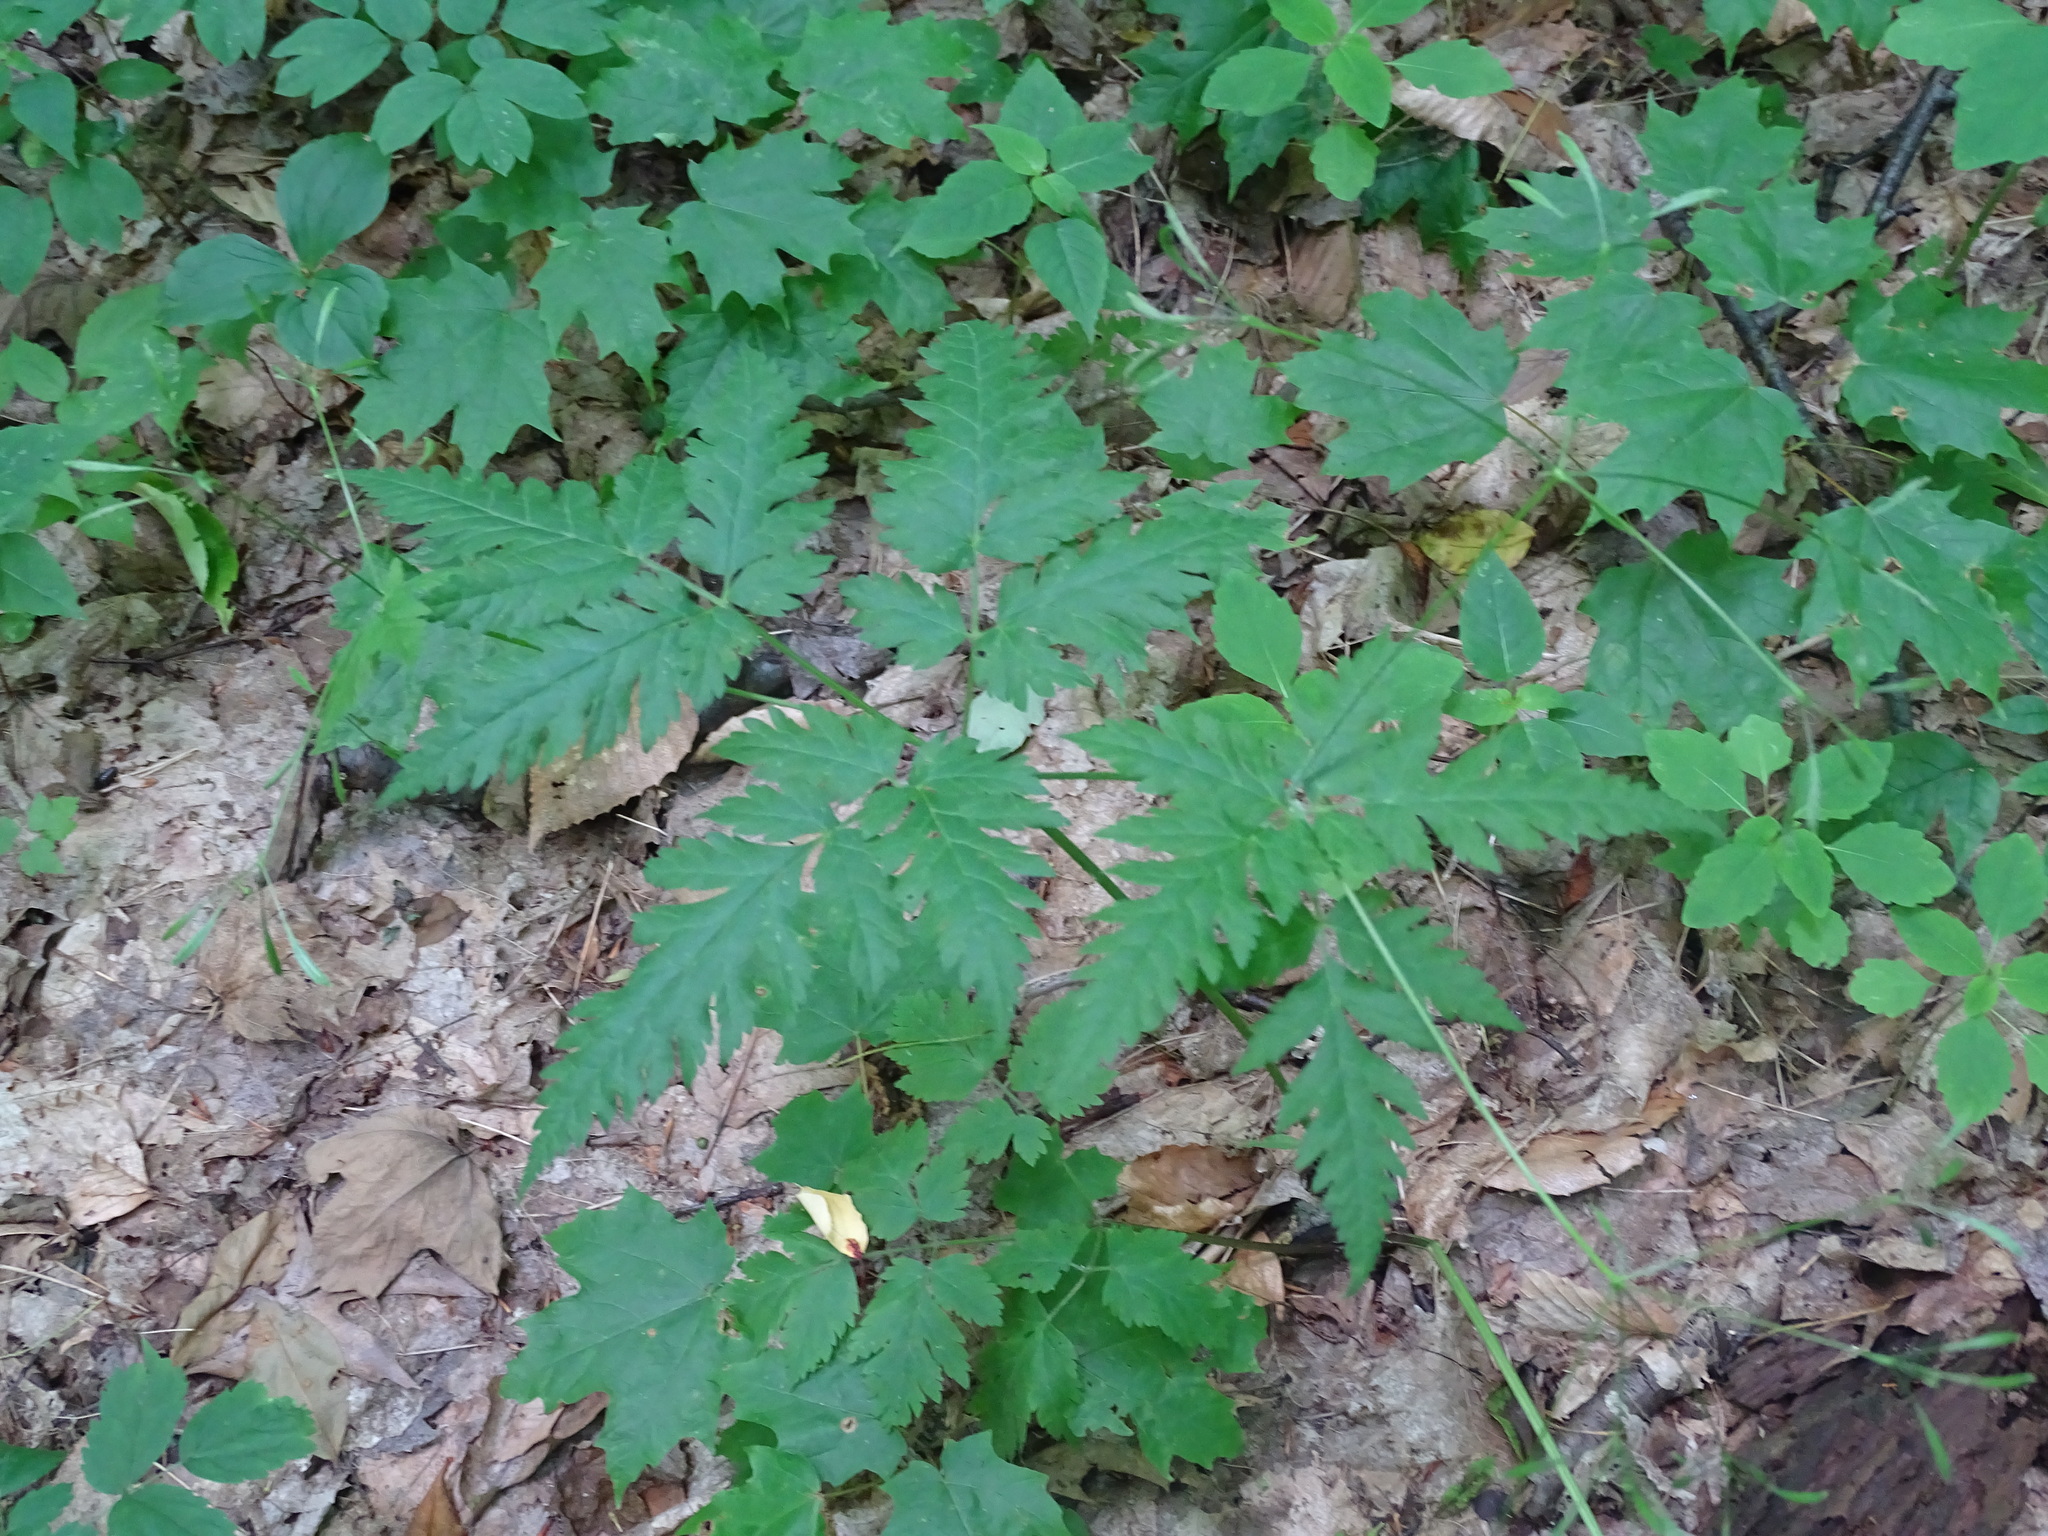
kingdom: Plantae
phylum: Tracheophyta
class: Magnoliopsida
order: Apiales
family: Apiaceae
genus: Osmorhiza
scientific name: Osmorhiza claytonii
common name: Hairy sweet cicely
